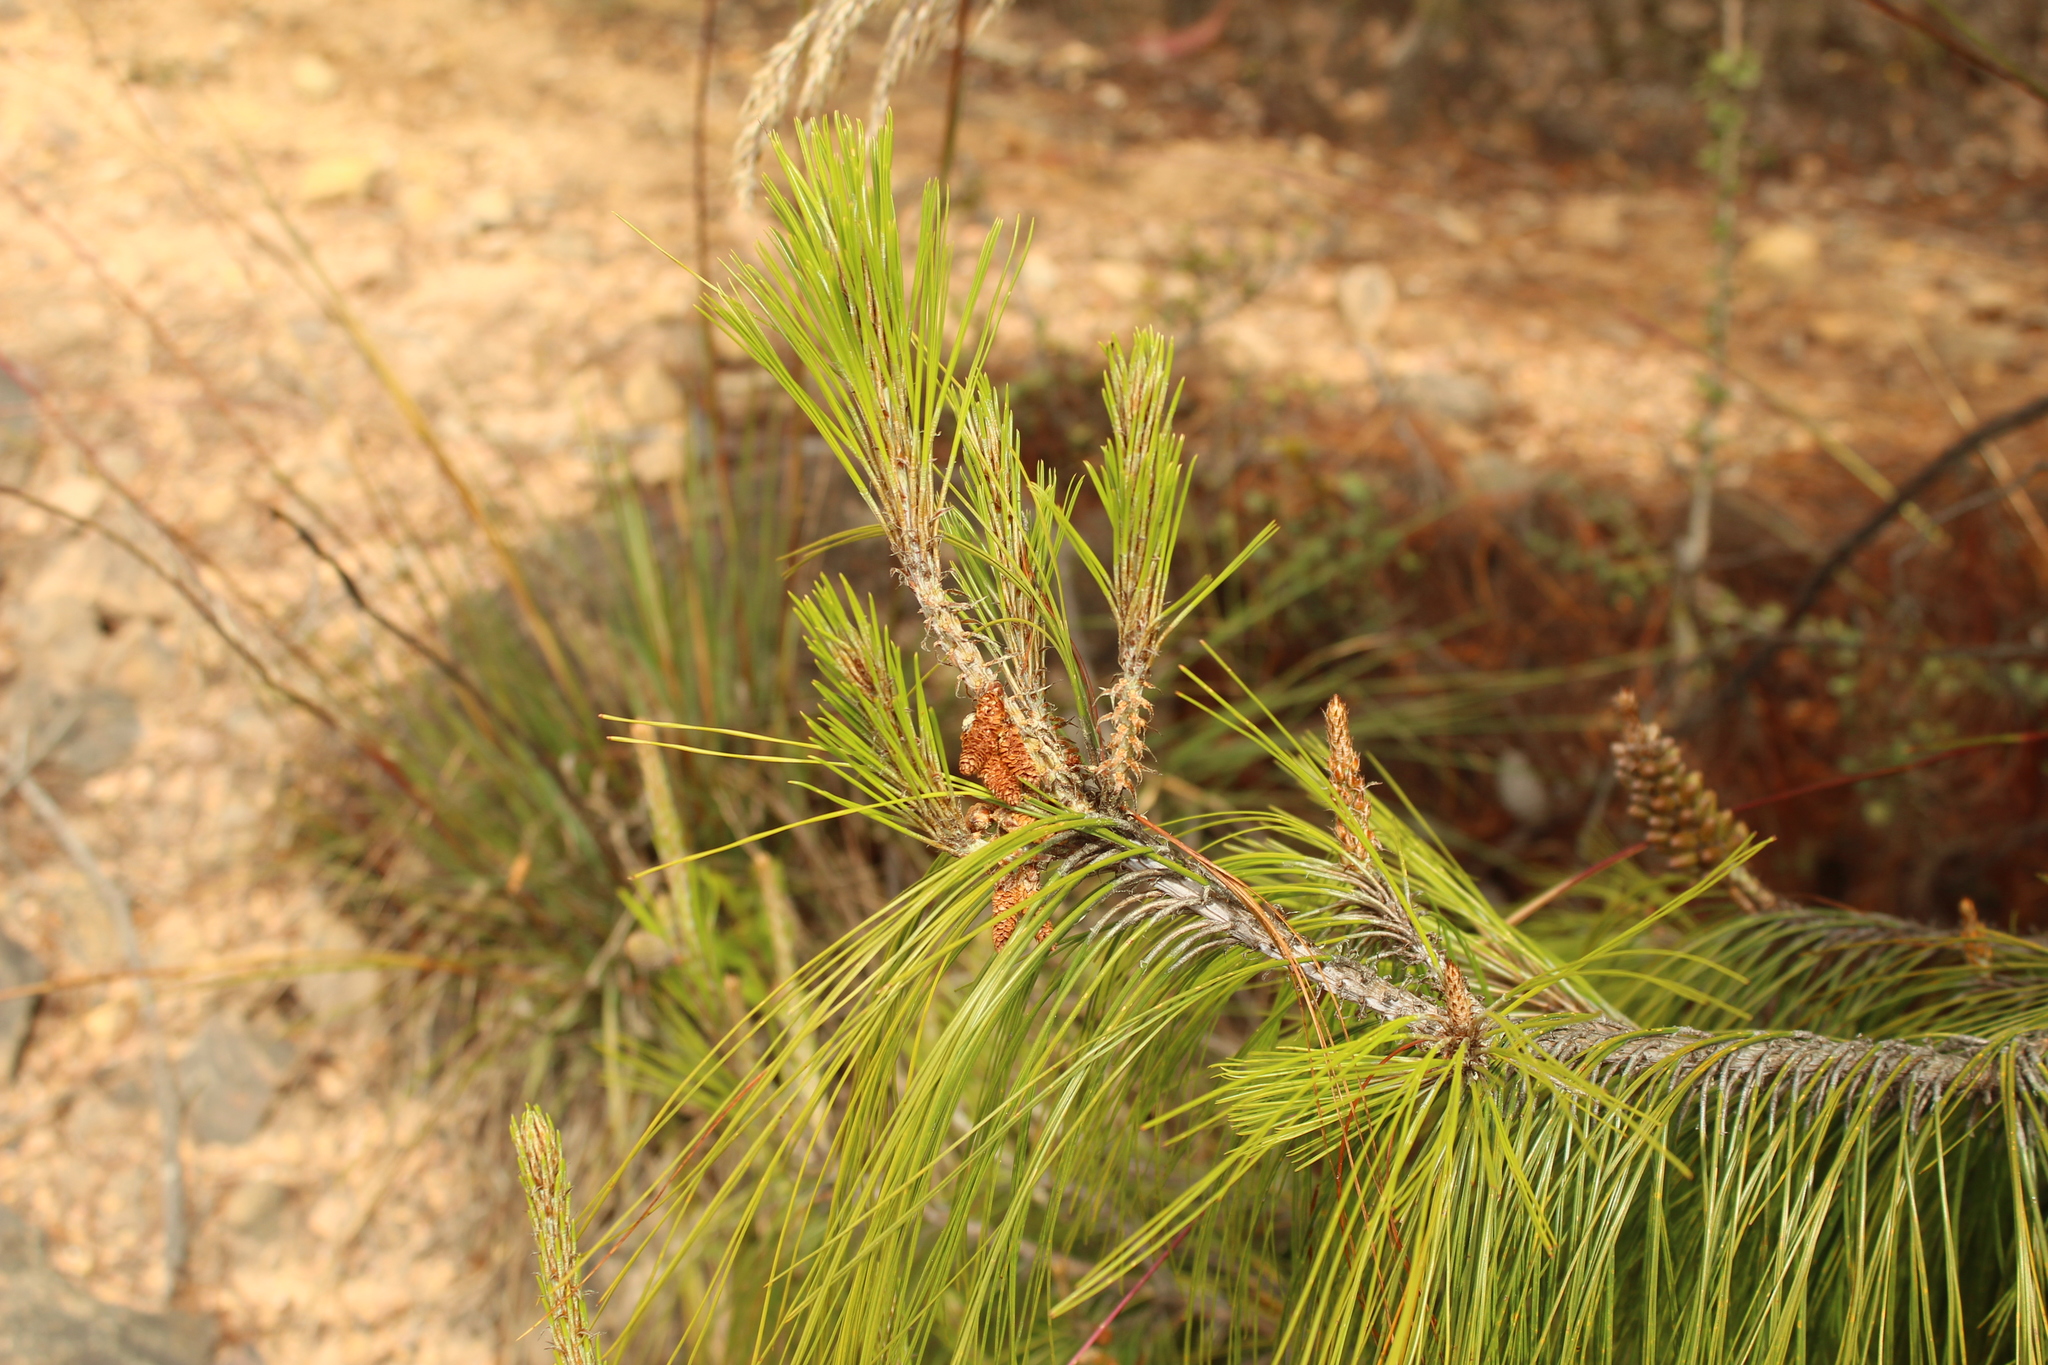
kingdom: Plantae
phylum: Tracheophyta
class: Pinopsida
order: Pinales
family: Pinaceae
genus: Pinus
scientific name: Pinus patula
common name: Mexican weeping pine
